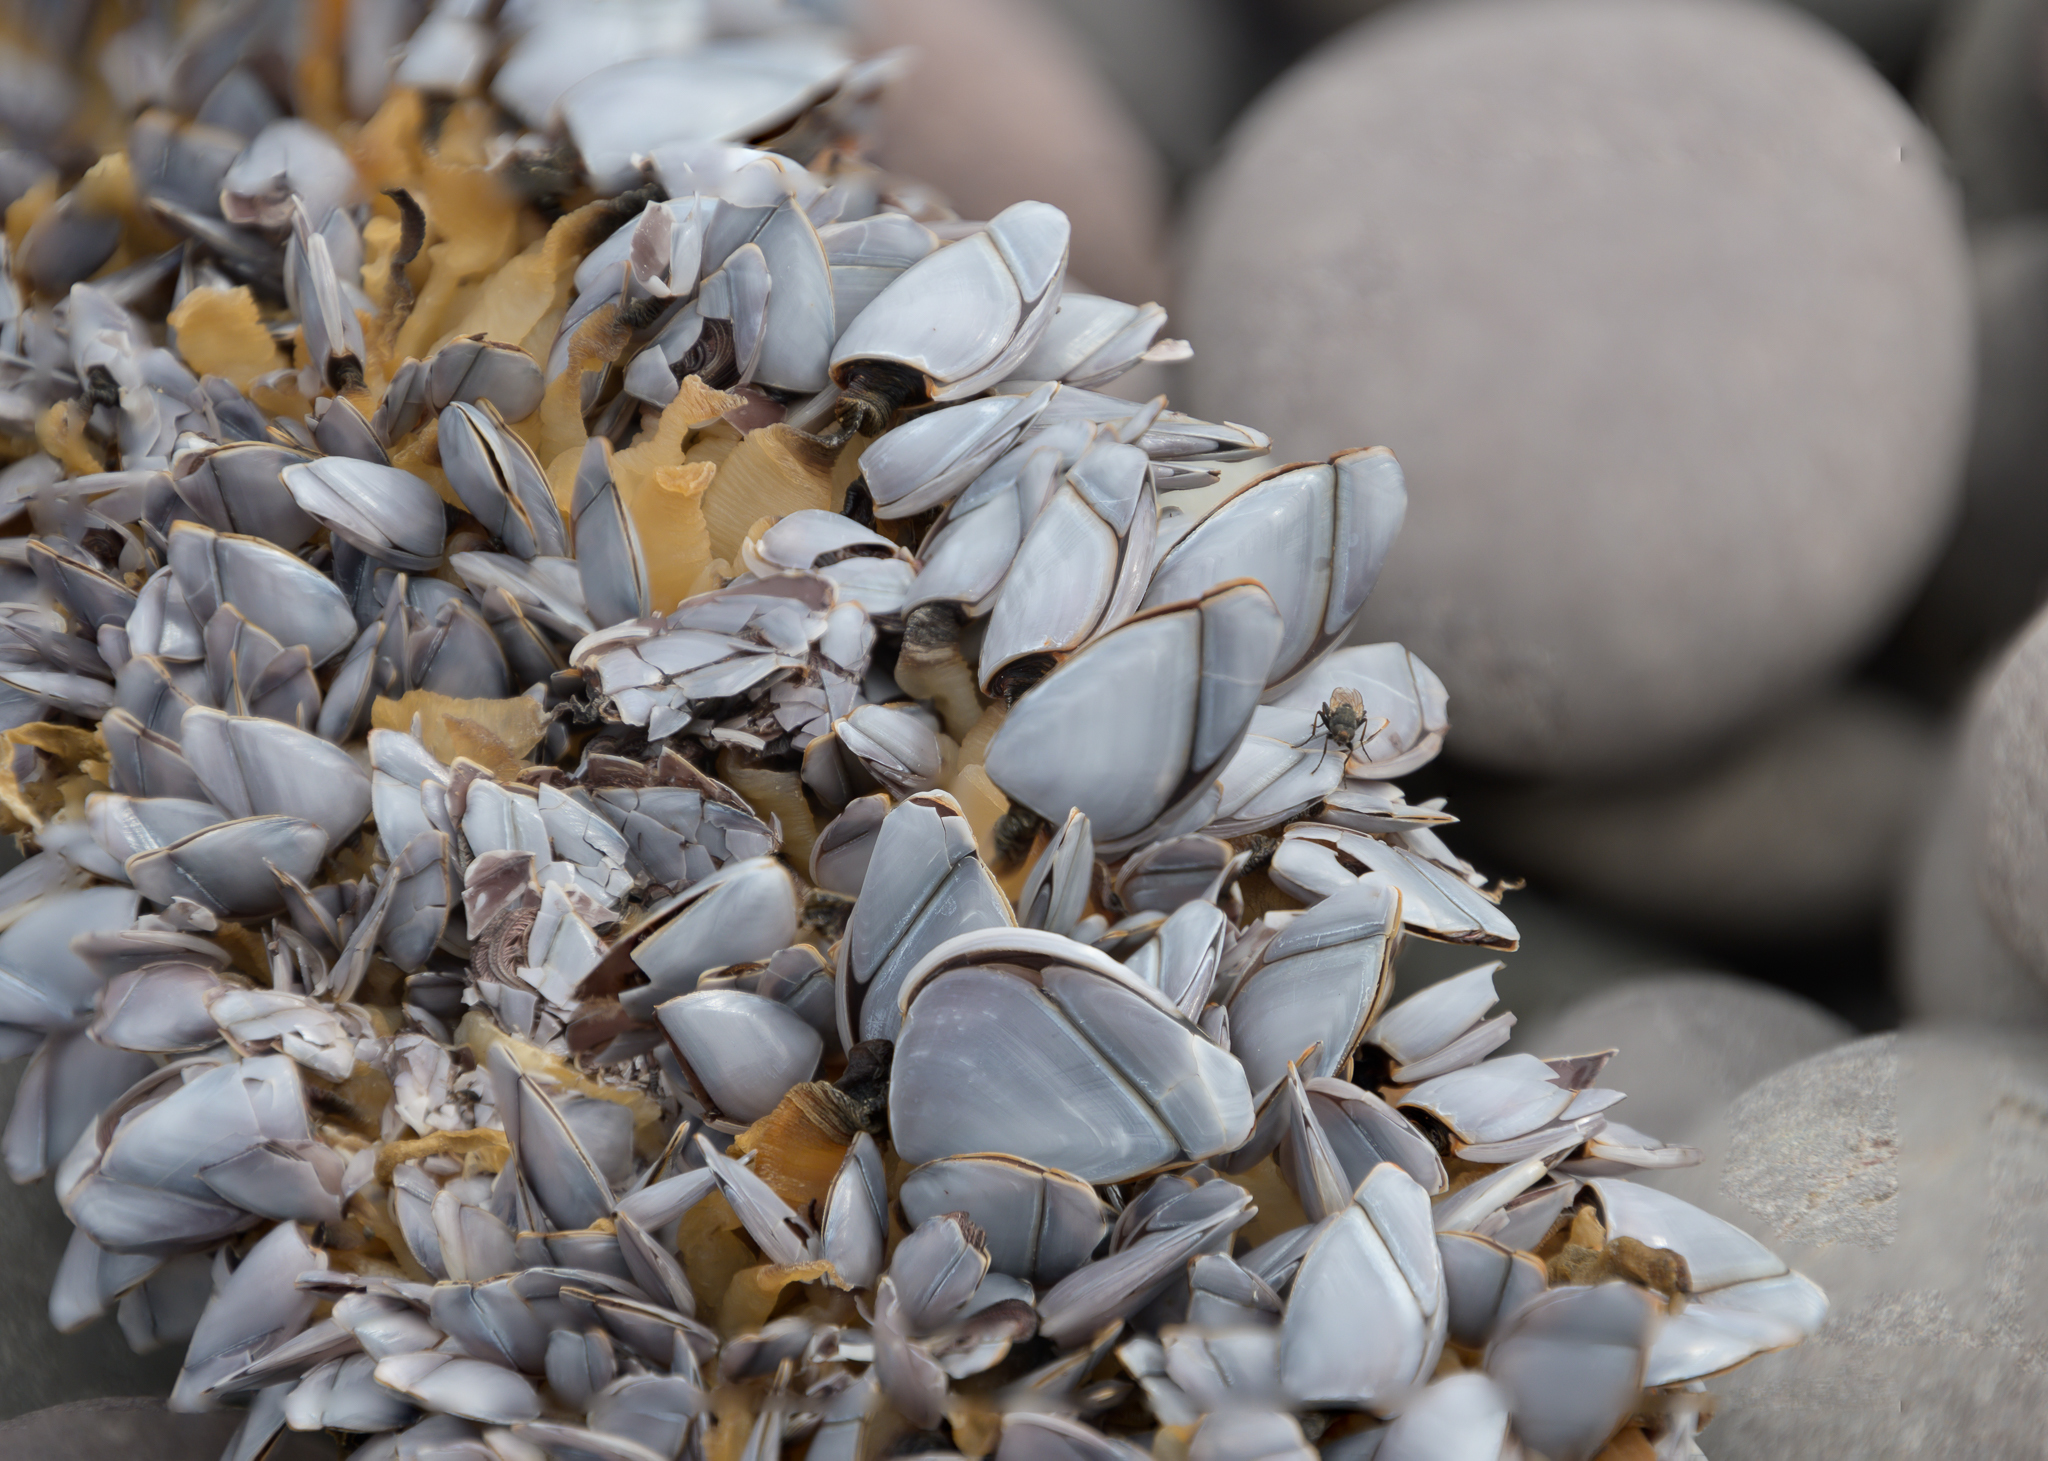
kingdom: Animalia
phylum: Arthropoda
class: Maxillopoda
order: Pedunculata
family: Lepadidae
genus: Lepas
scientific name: Lepas anatifera
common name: Common goose barnacle
